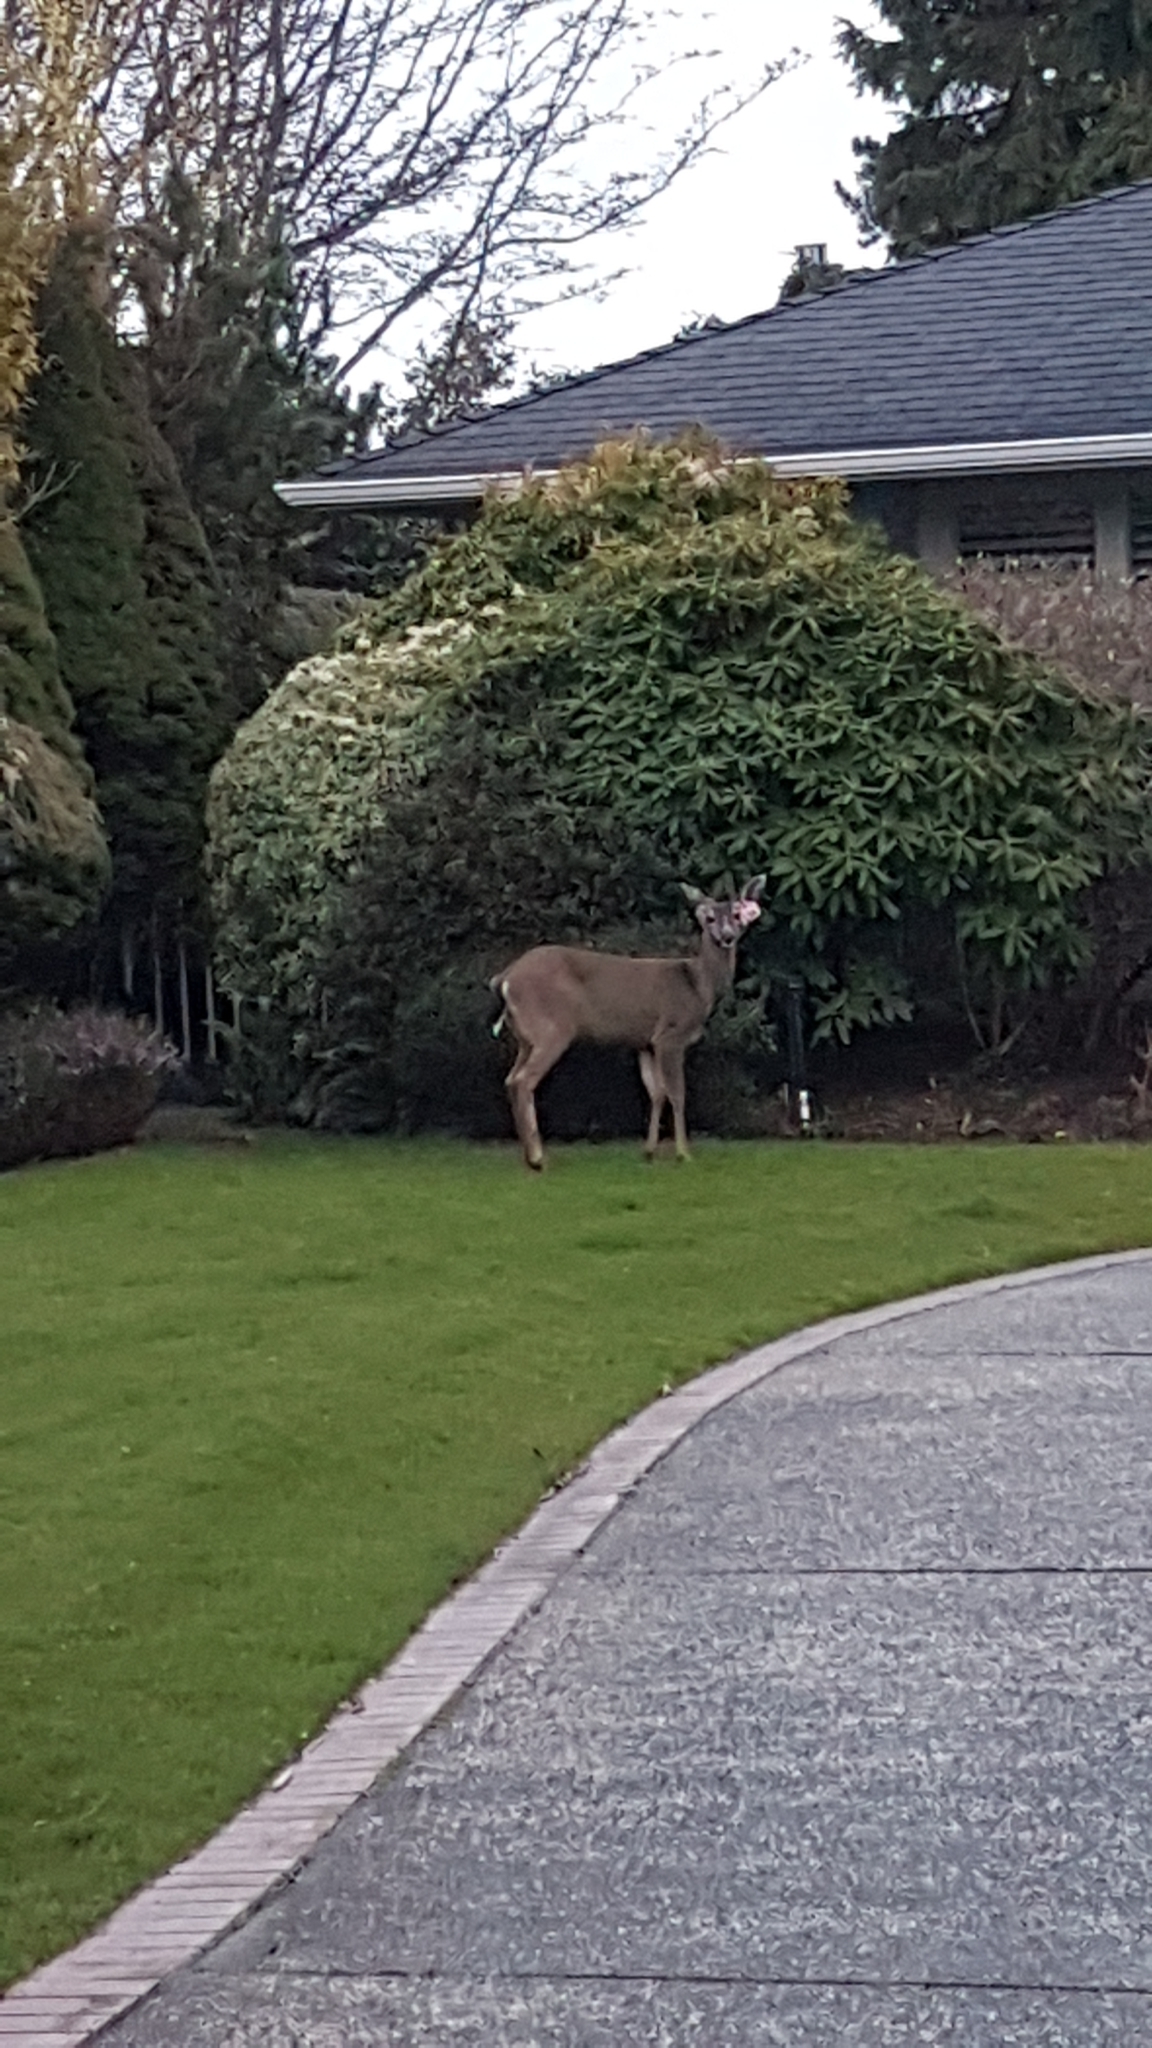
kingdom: Animalia
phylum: Chordata
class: Mammalia
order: Artiodactyla
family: Cervidae
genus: Odocoileus
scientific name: Odocoileus hemionus
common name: Mule deer
